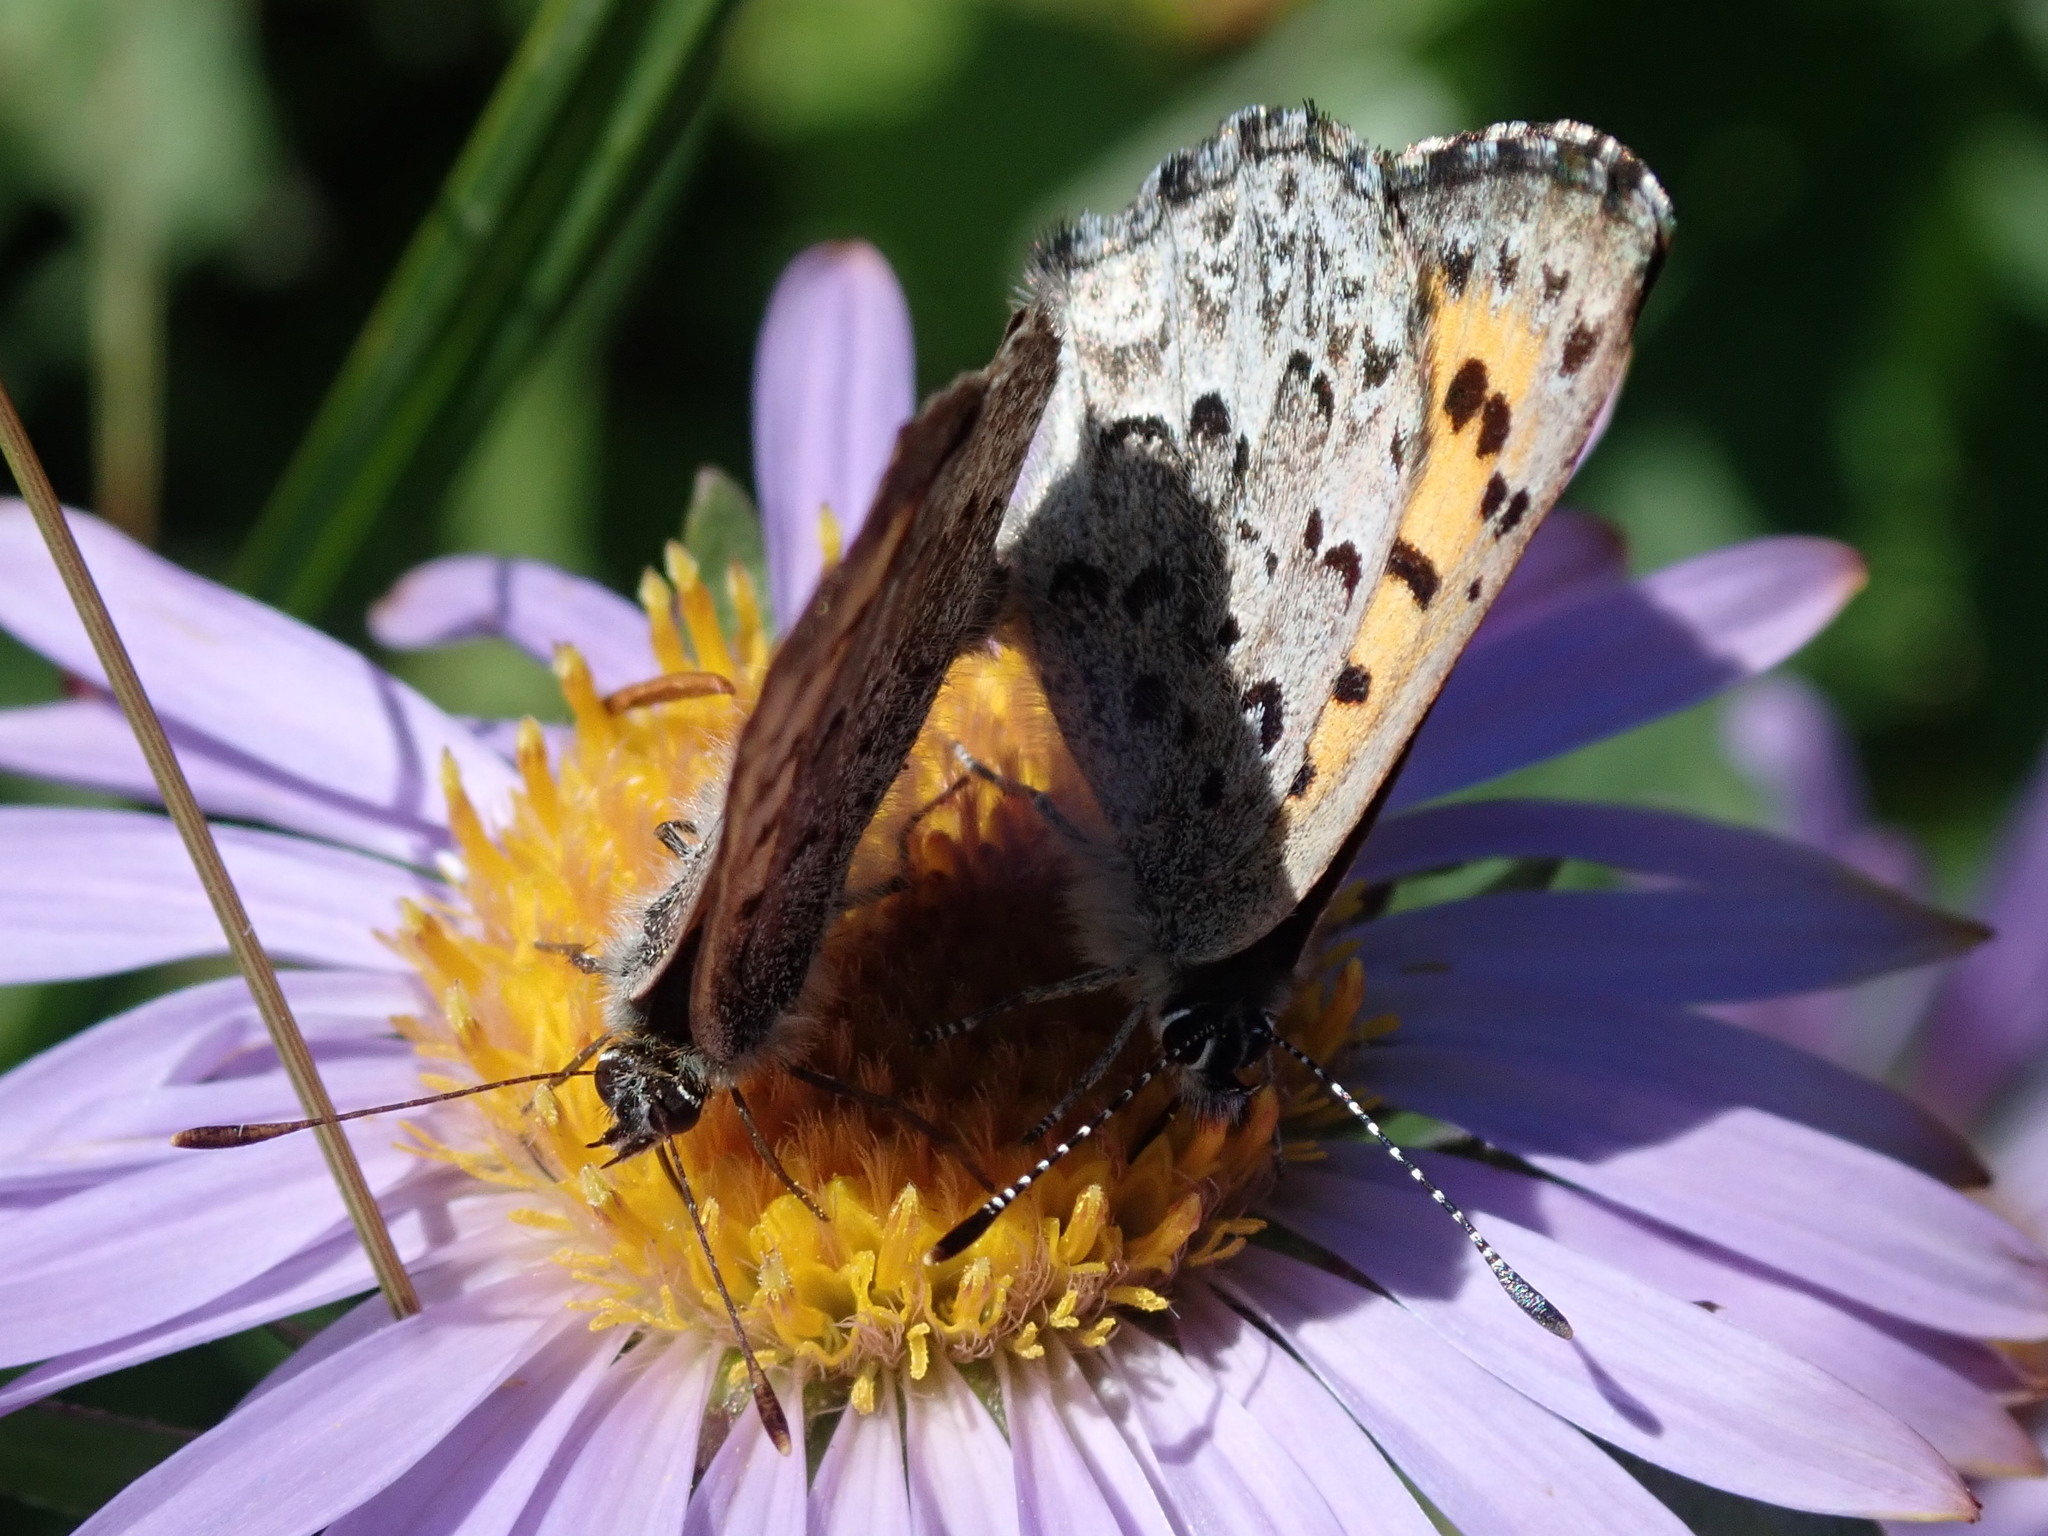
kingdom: Animalia
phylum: Arthropoda
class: Insecta
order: Lepidoptera
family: Lycaenidae
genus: Tharsalea
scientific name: Tharsalea mariposa
